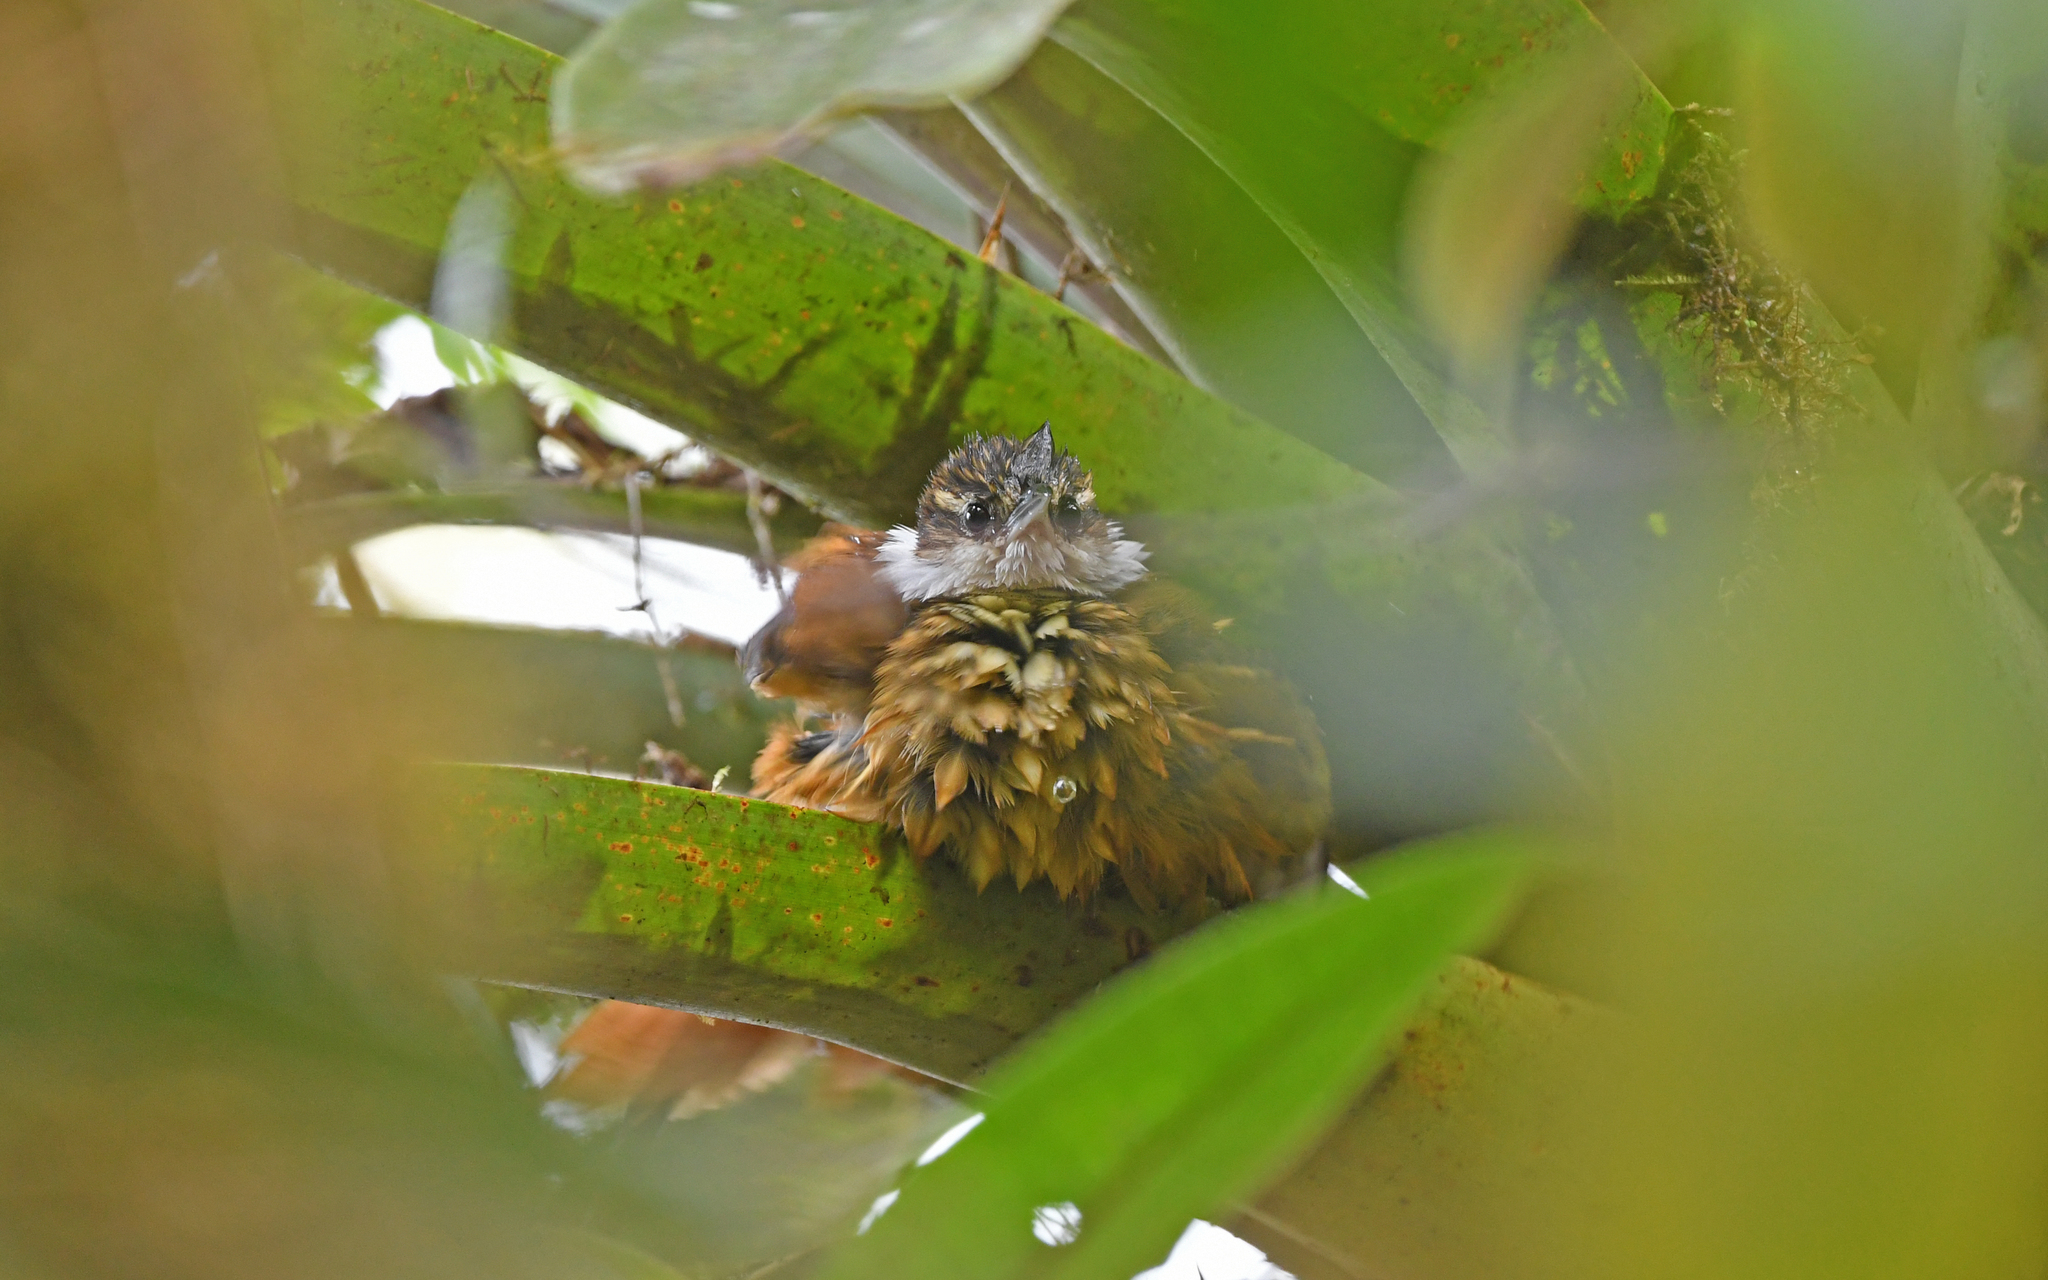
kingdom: Animalia
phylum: Chordata
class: Aves
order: Passeriformes
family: Furnariidae
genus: Pseudocolaptes
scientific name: Pseudocolaptes boissonneautii
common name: Streaked tuftedcheek
